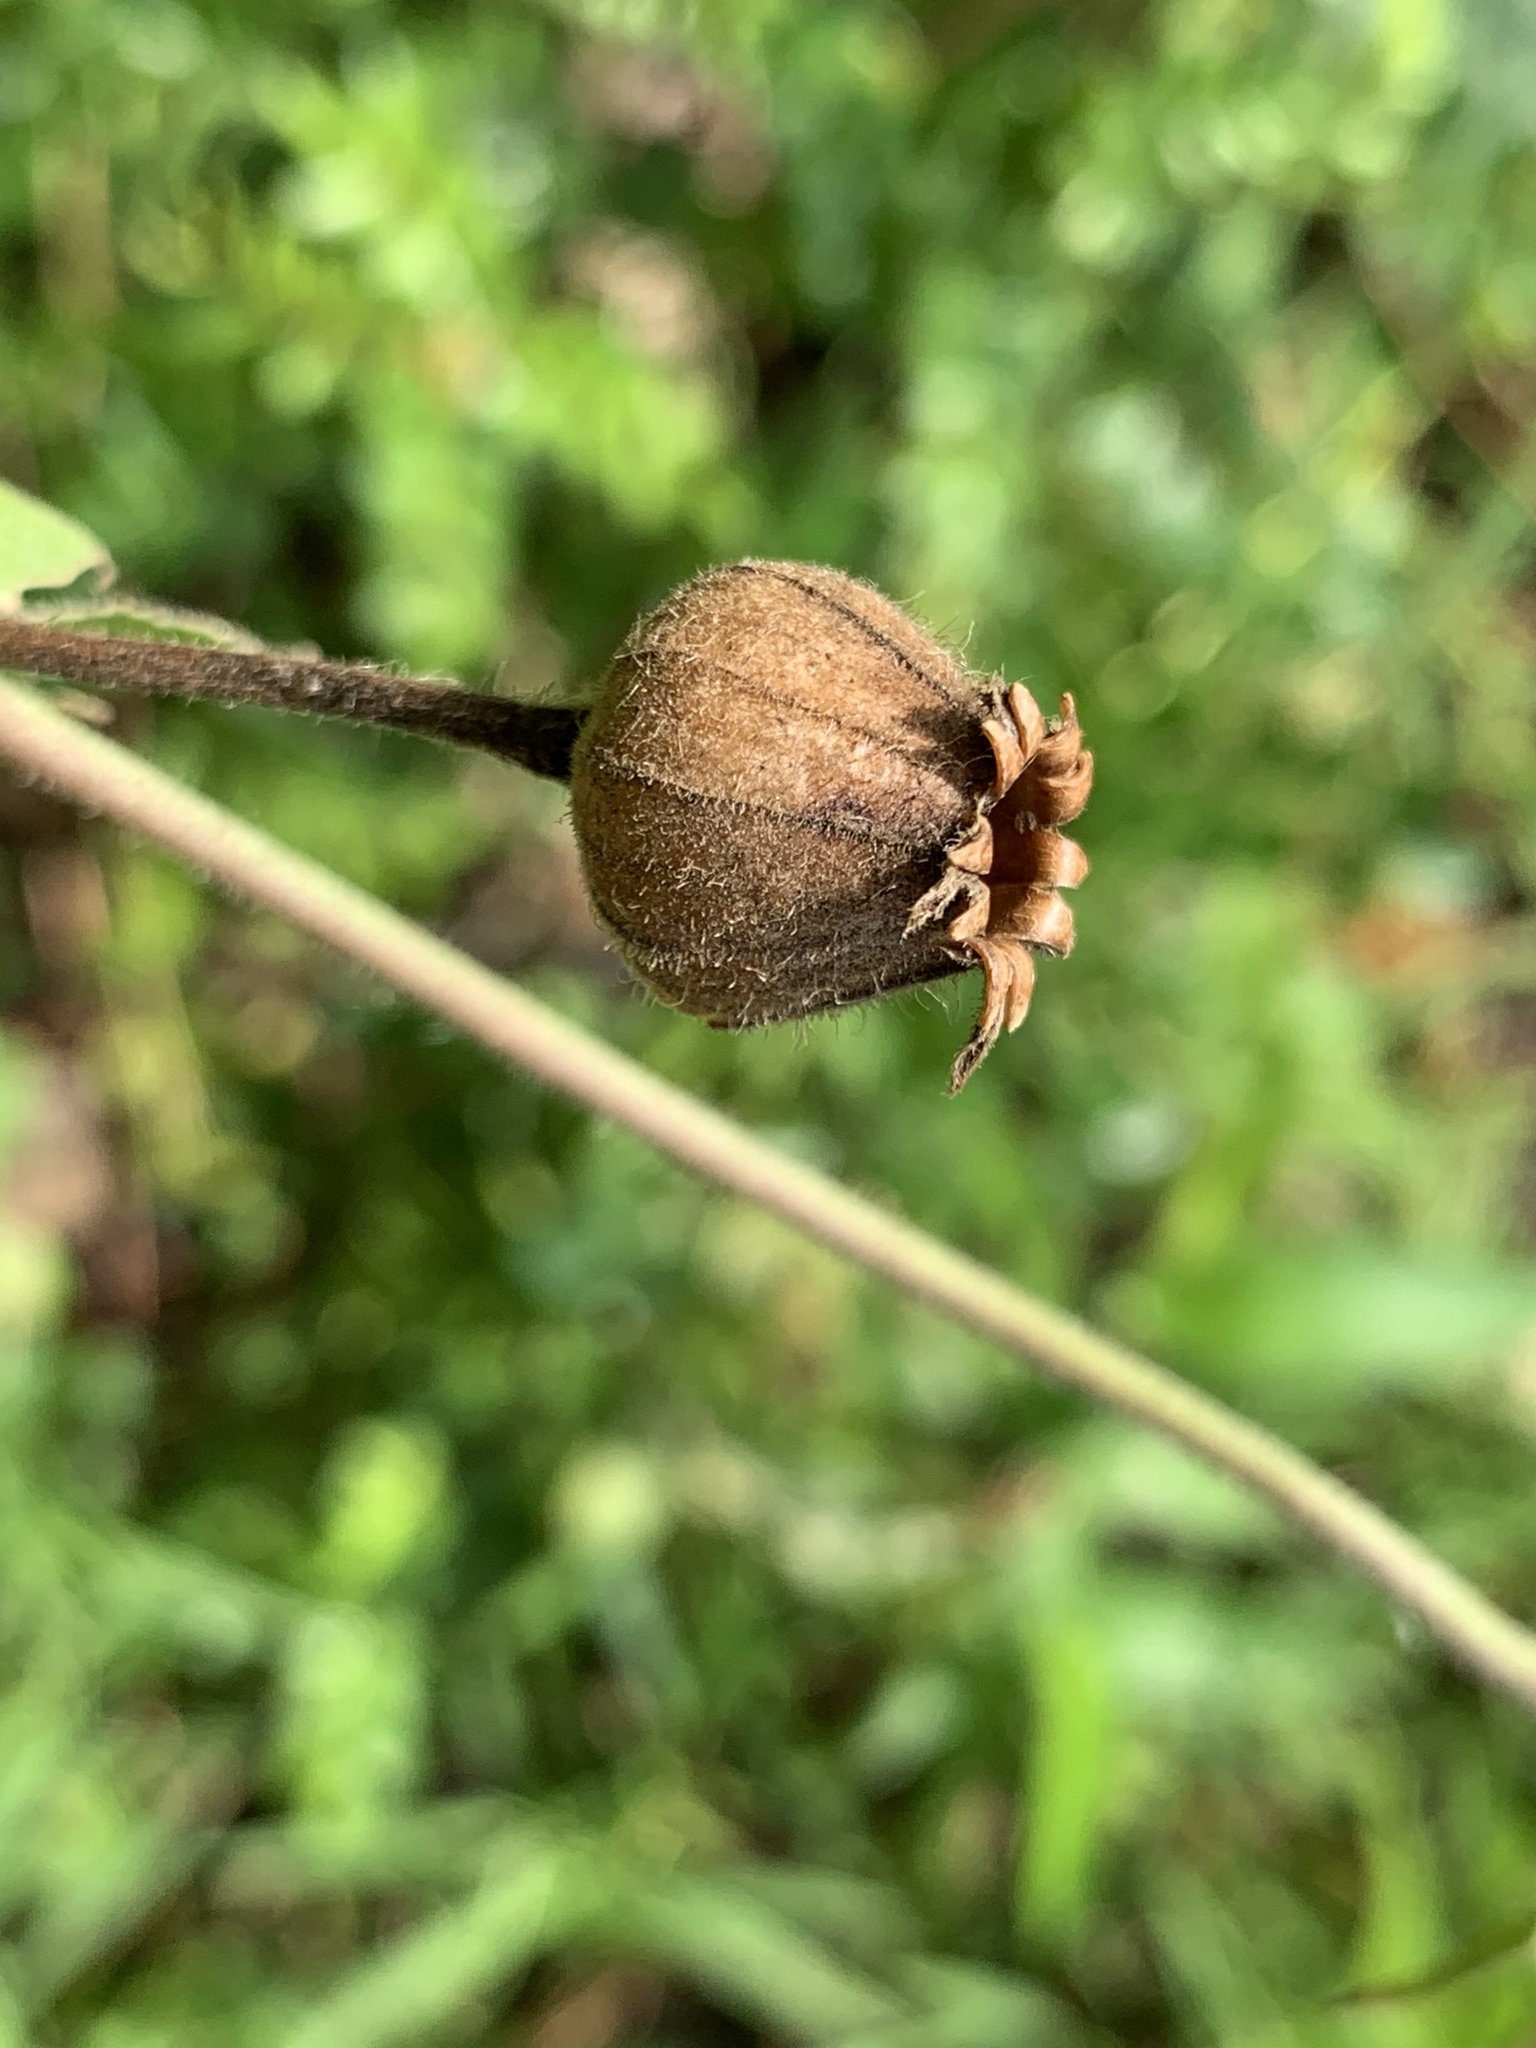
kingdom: Plantae
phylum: Tracheophyta
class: Magnoliopsida
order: Caryophyllales
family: Caryophyllaceae
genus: Silene
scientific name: Silene latifolia
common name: White campion
